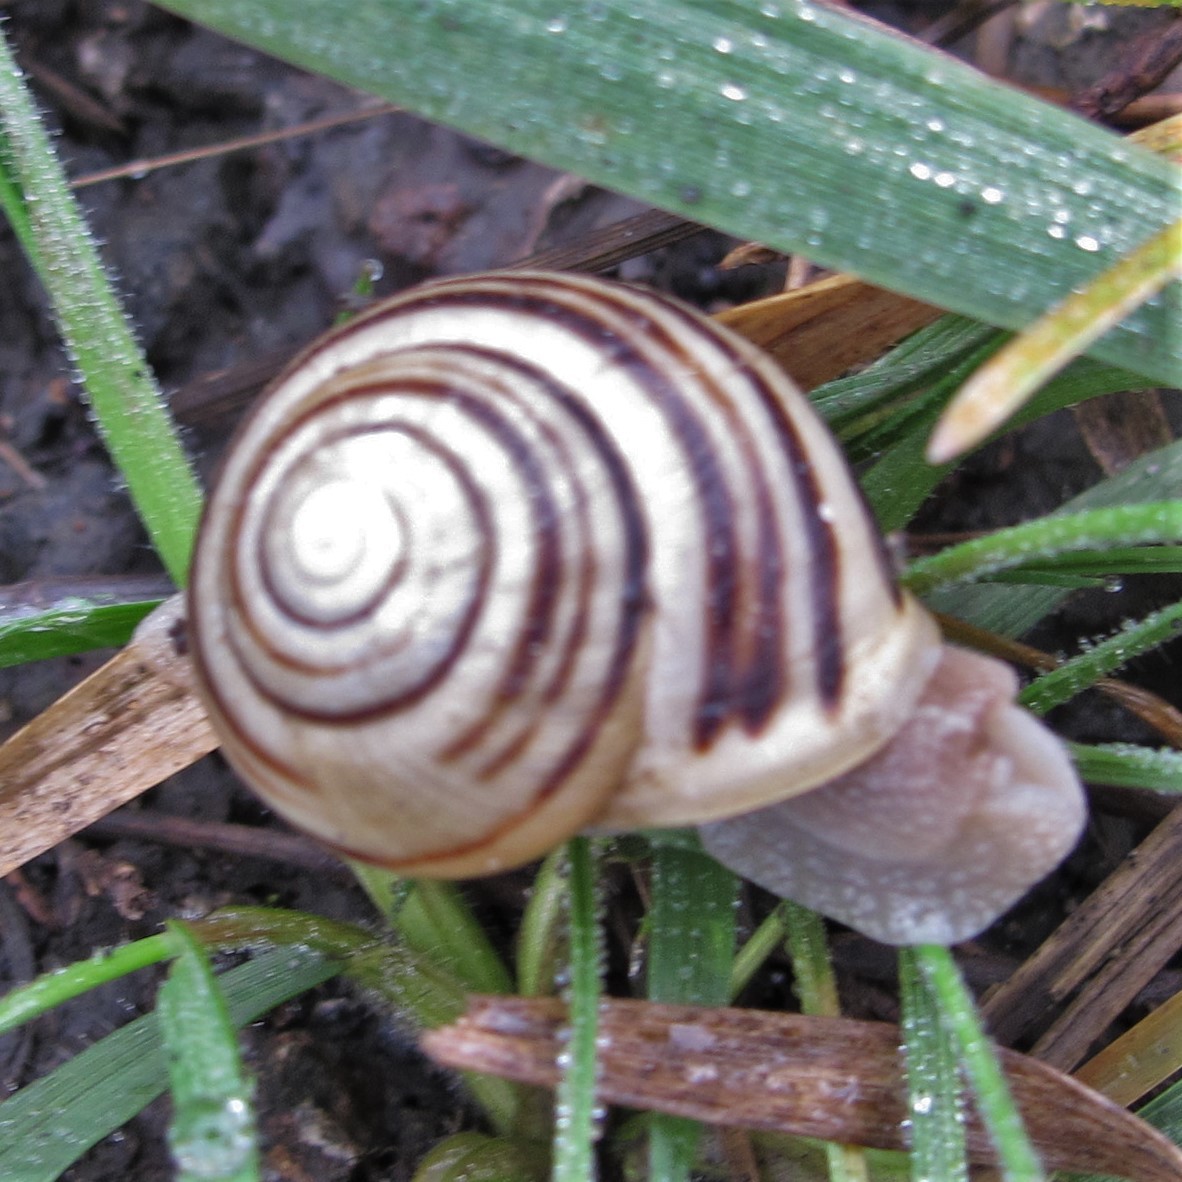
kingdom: Animalia
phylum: Mollusca
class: Gastropoda
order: Stylommatophora
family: Helicidae
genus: Cepaea
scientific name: Cepaea hortensis
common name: White-lip gardensnail
